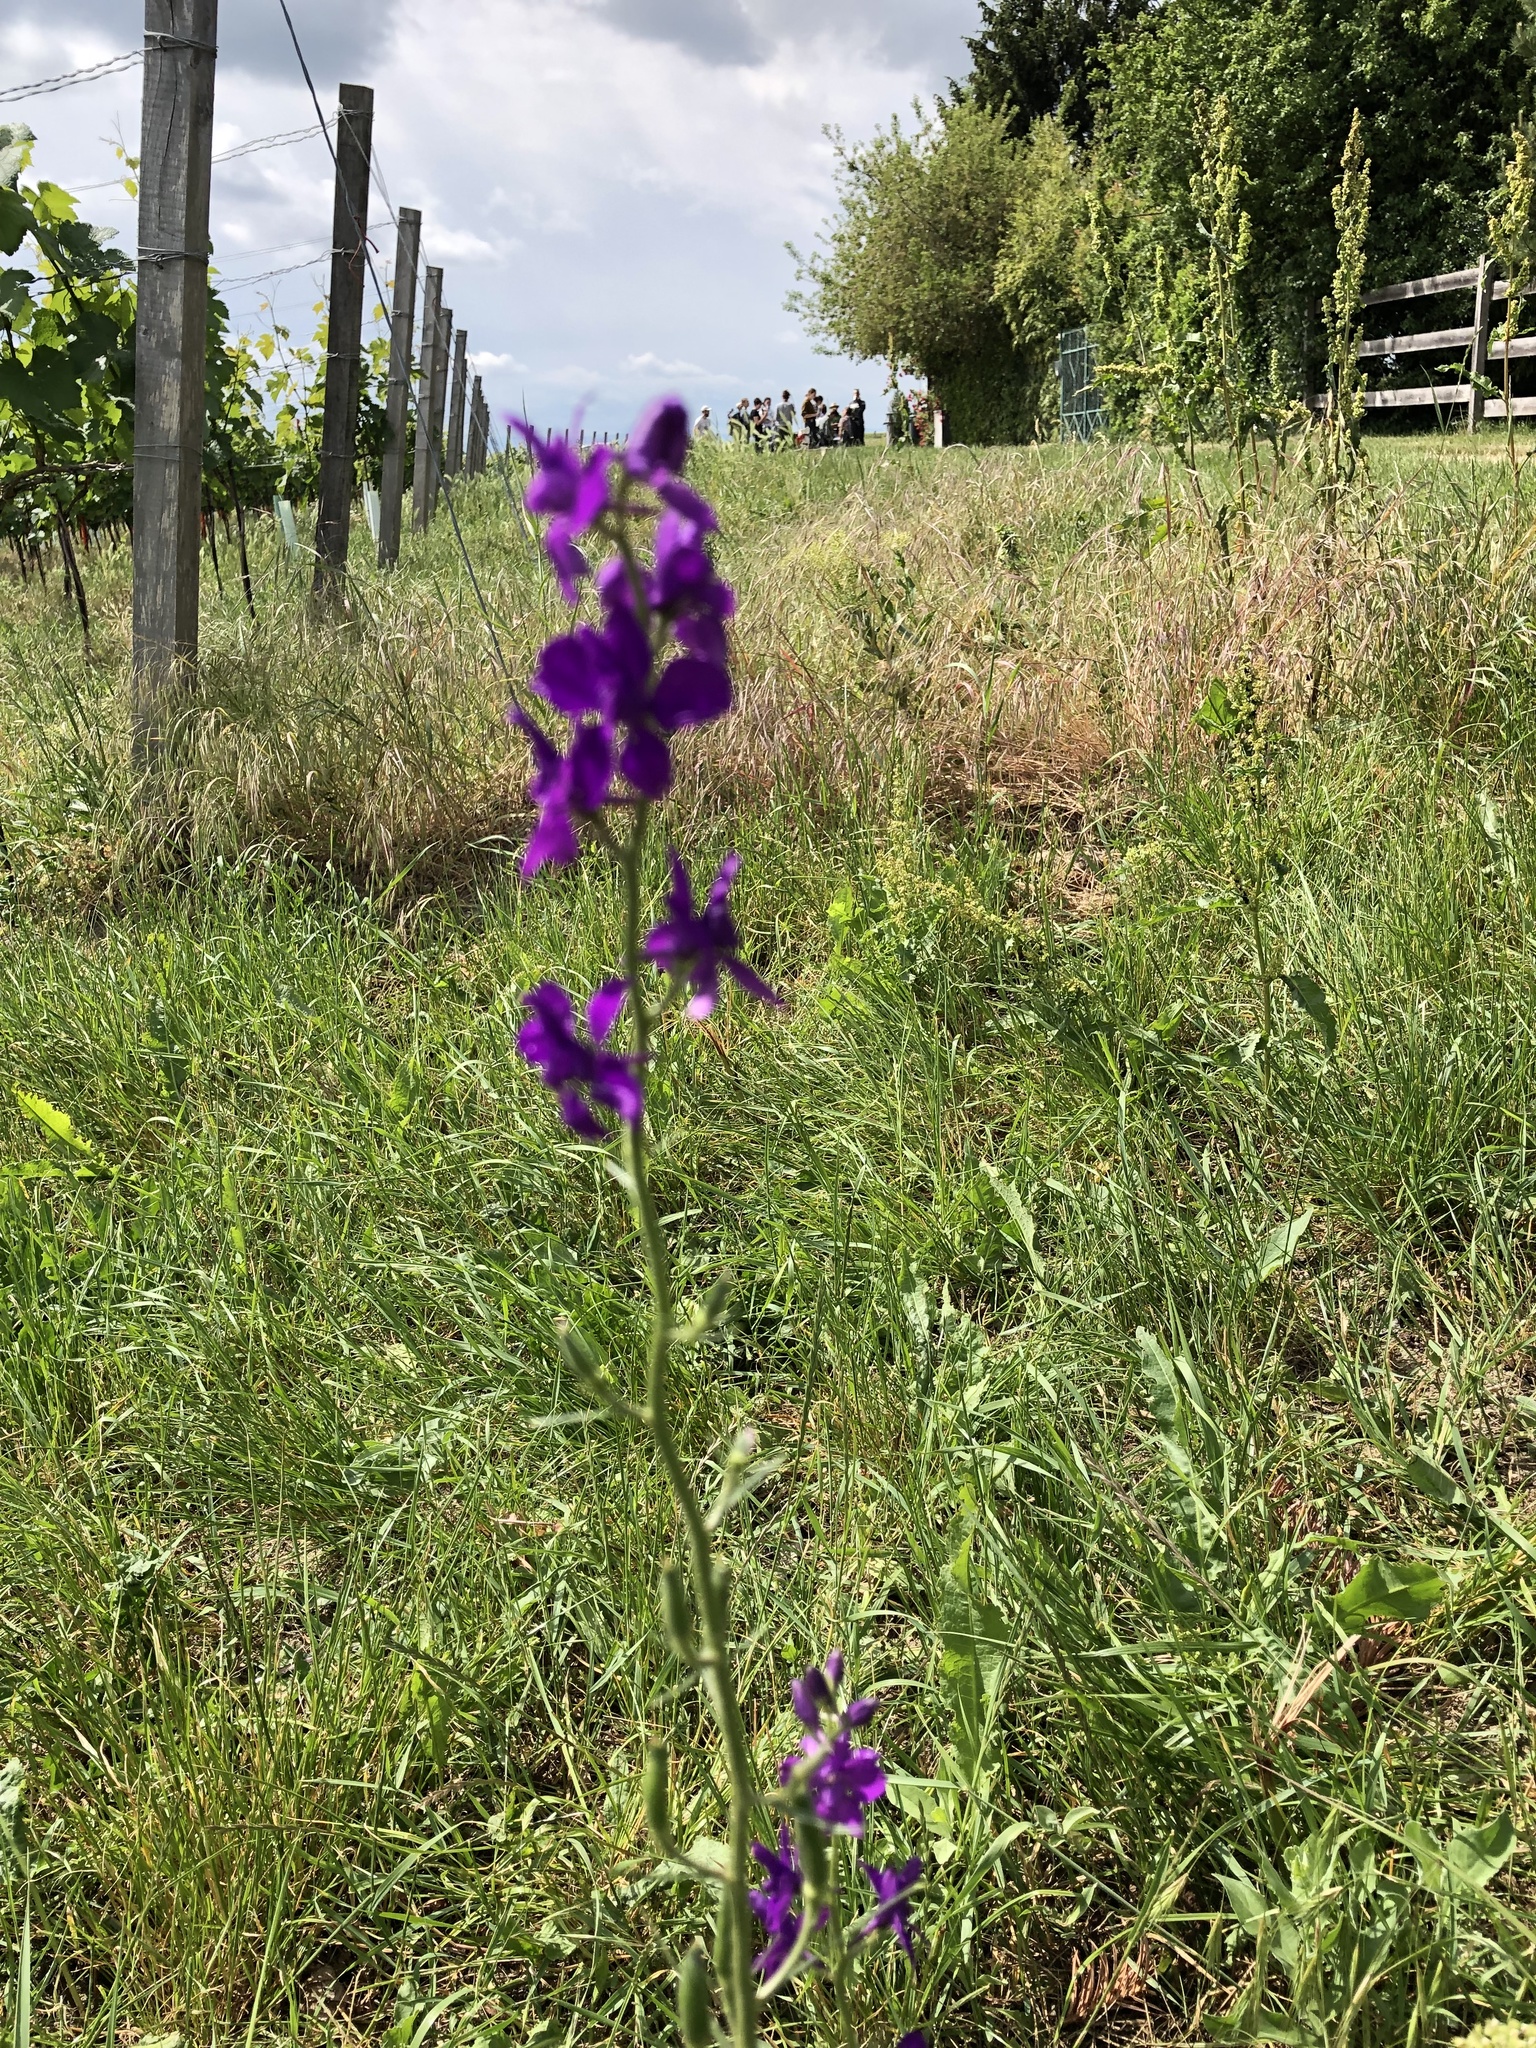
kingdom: Plantae
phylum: Tracheophyta
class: Magnoliopsida
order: Ranunculales
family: Ranunculaceae
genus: Delphinium
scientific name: Delphinium hispanicum
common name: Oriental knight's-spur
